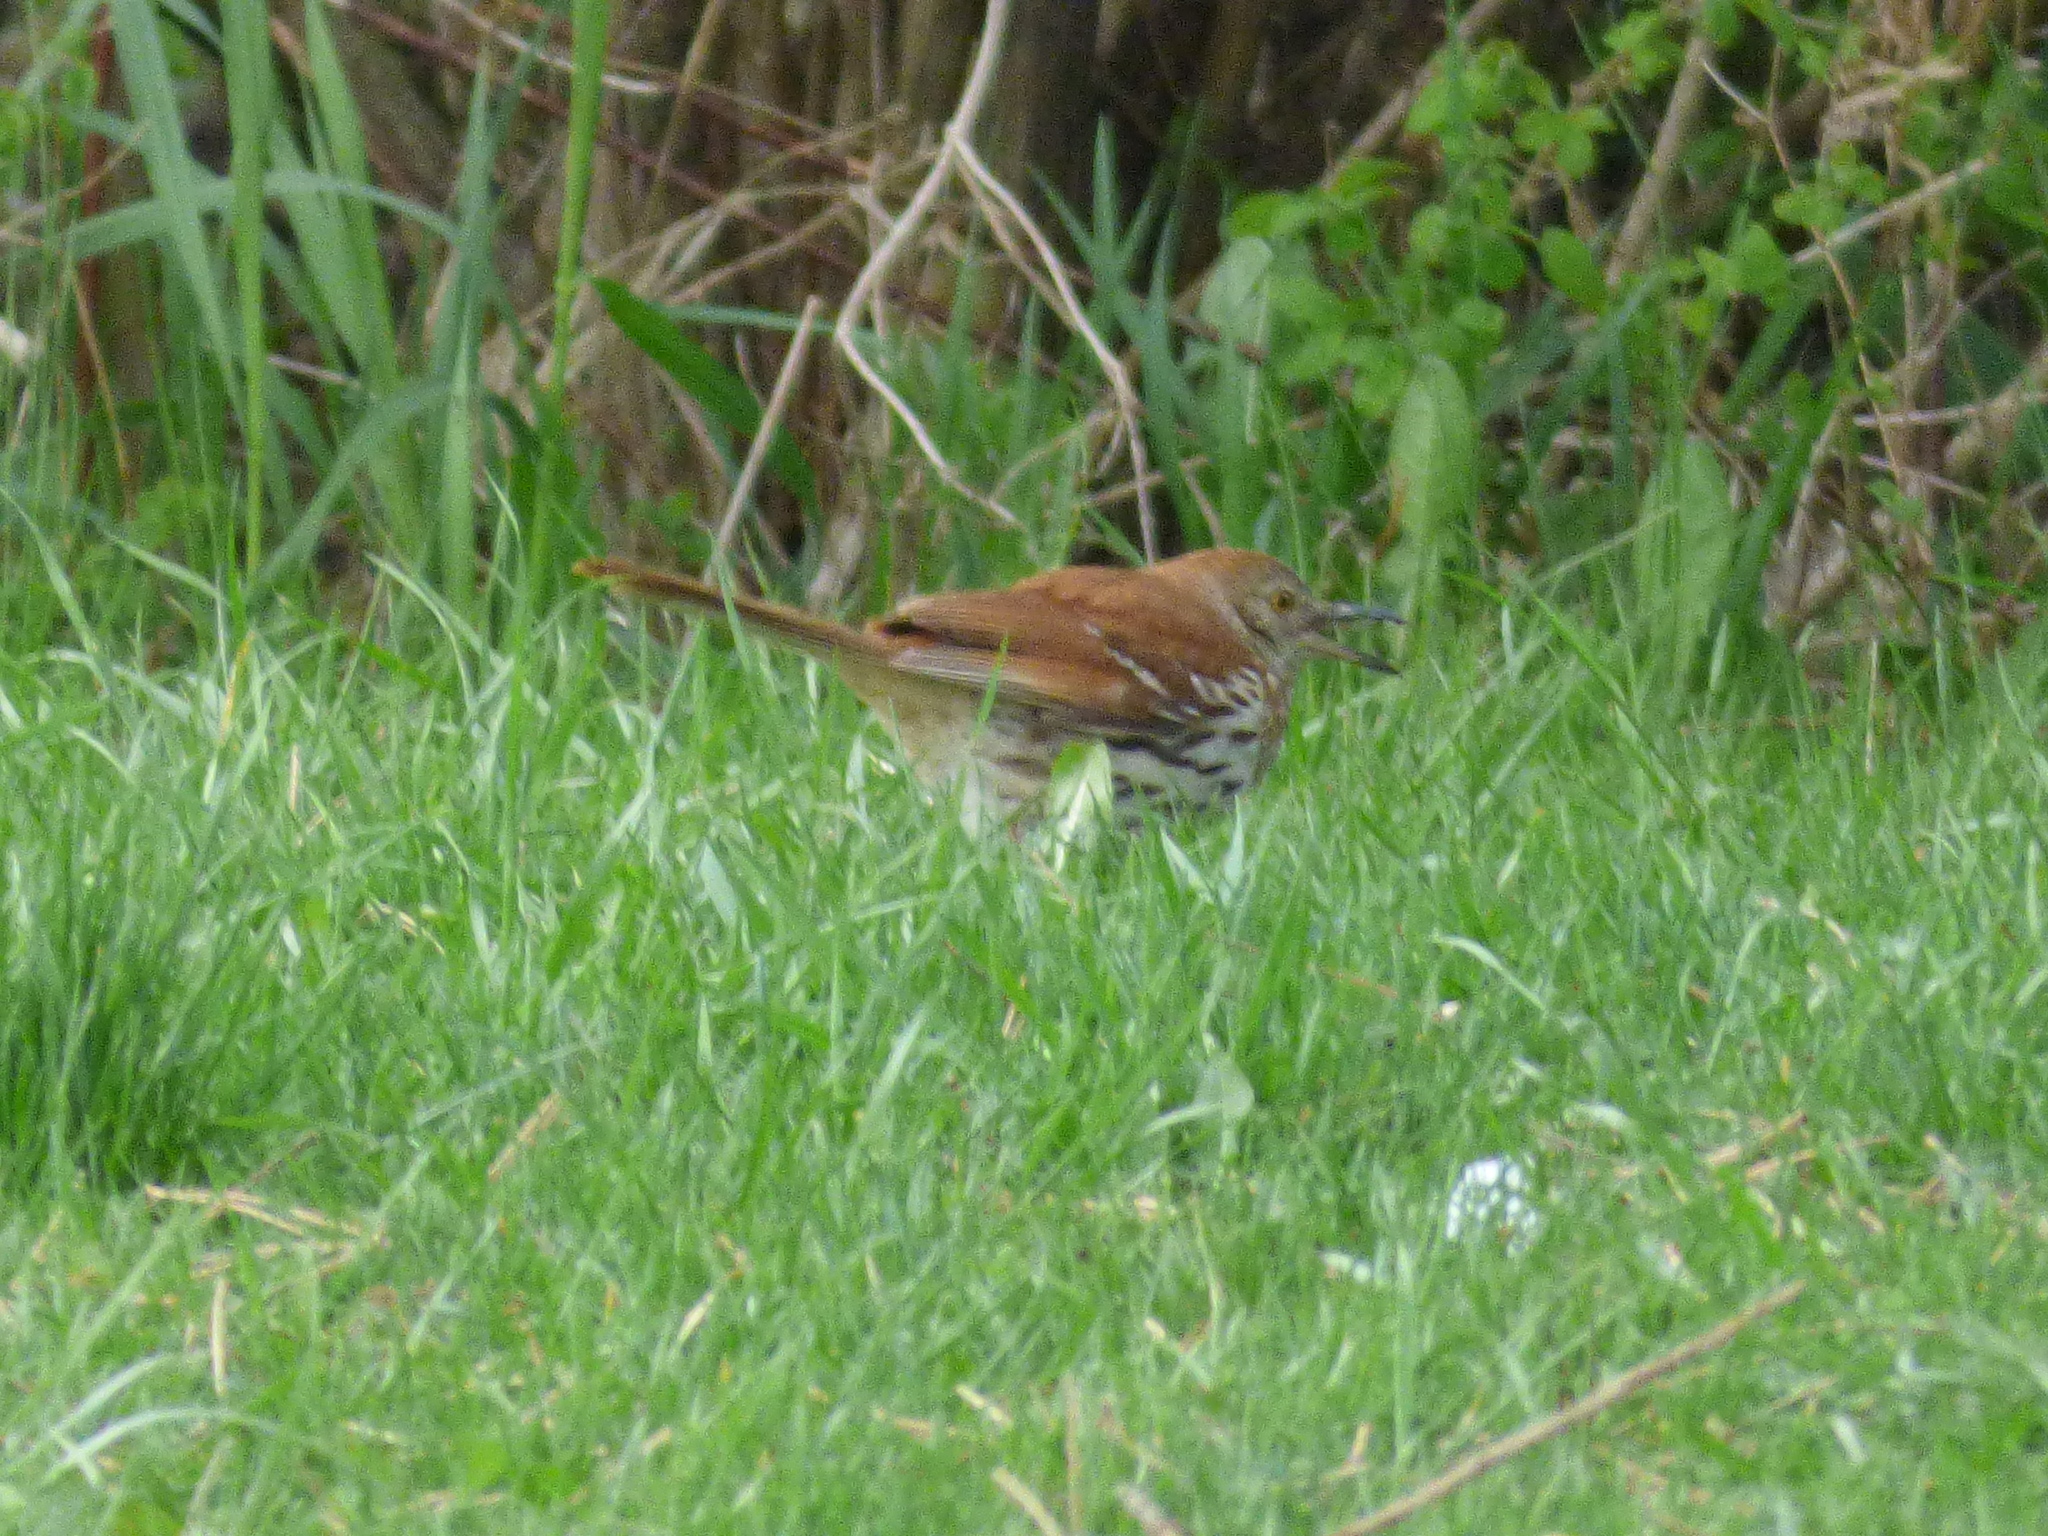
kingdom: Animalia
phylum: Chordata
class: Aves
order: Passeriformes
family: Mimidae
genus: Toxostoma
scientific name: Toxostoma rufum
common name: Brown thrasher
